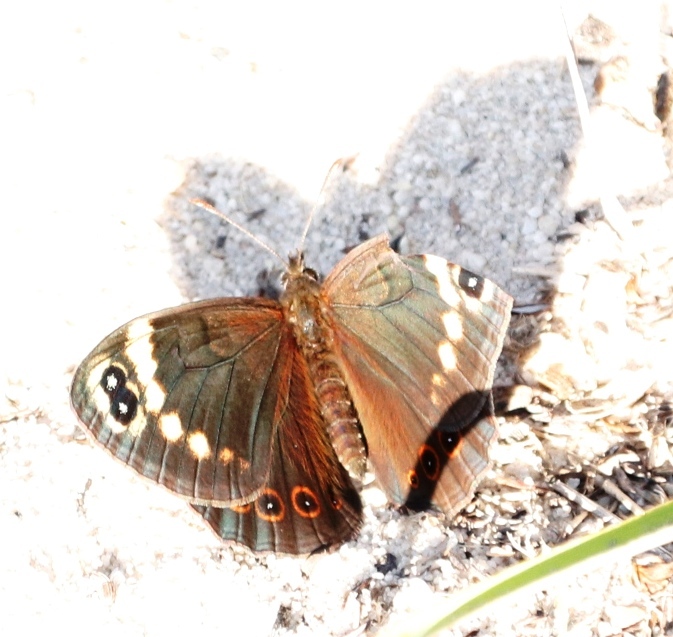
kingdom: Animalia
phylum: Arthropoda
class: Insecta
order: Lepidoptera
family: Nymphalidae
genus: Dira
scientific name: Dira clytus
